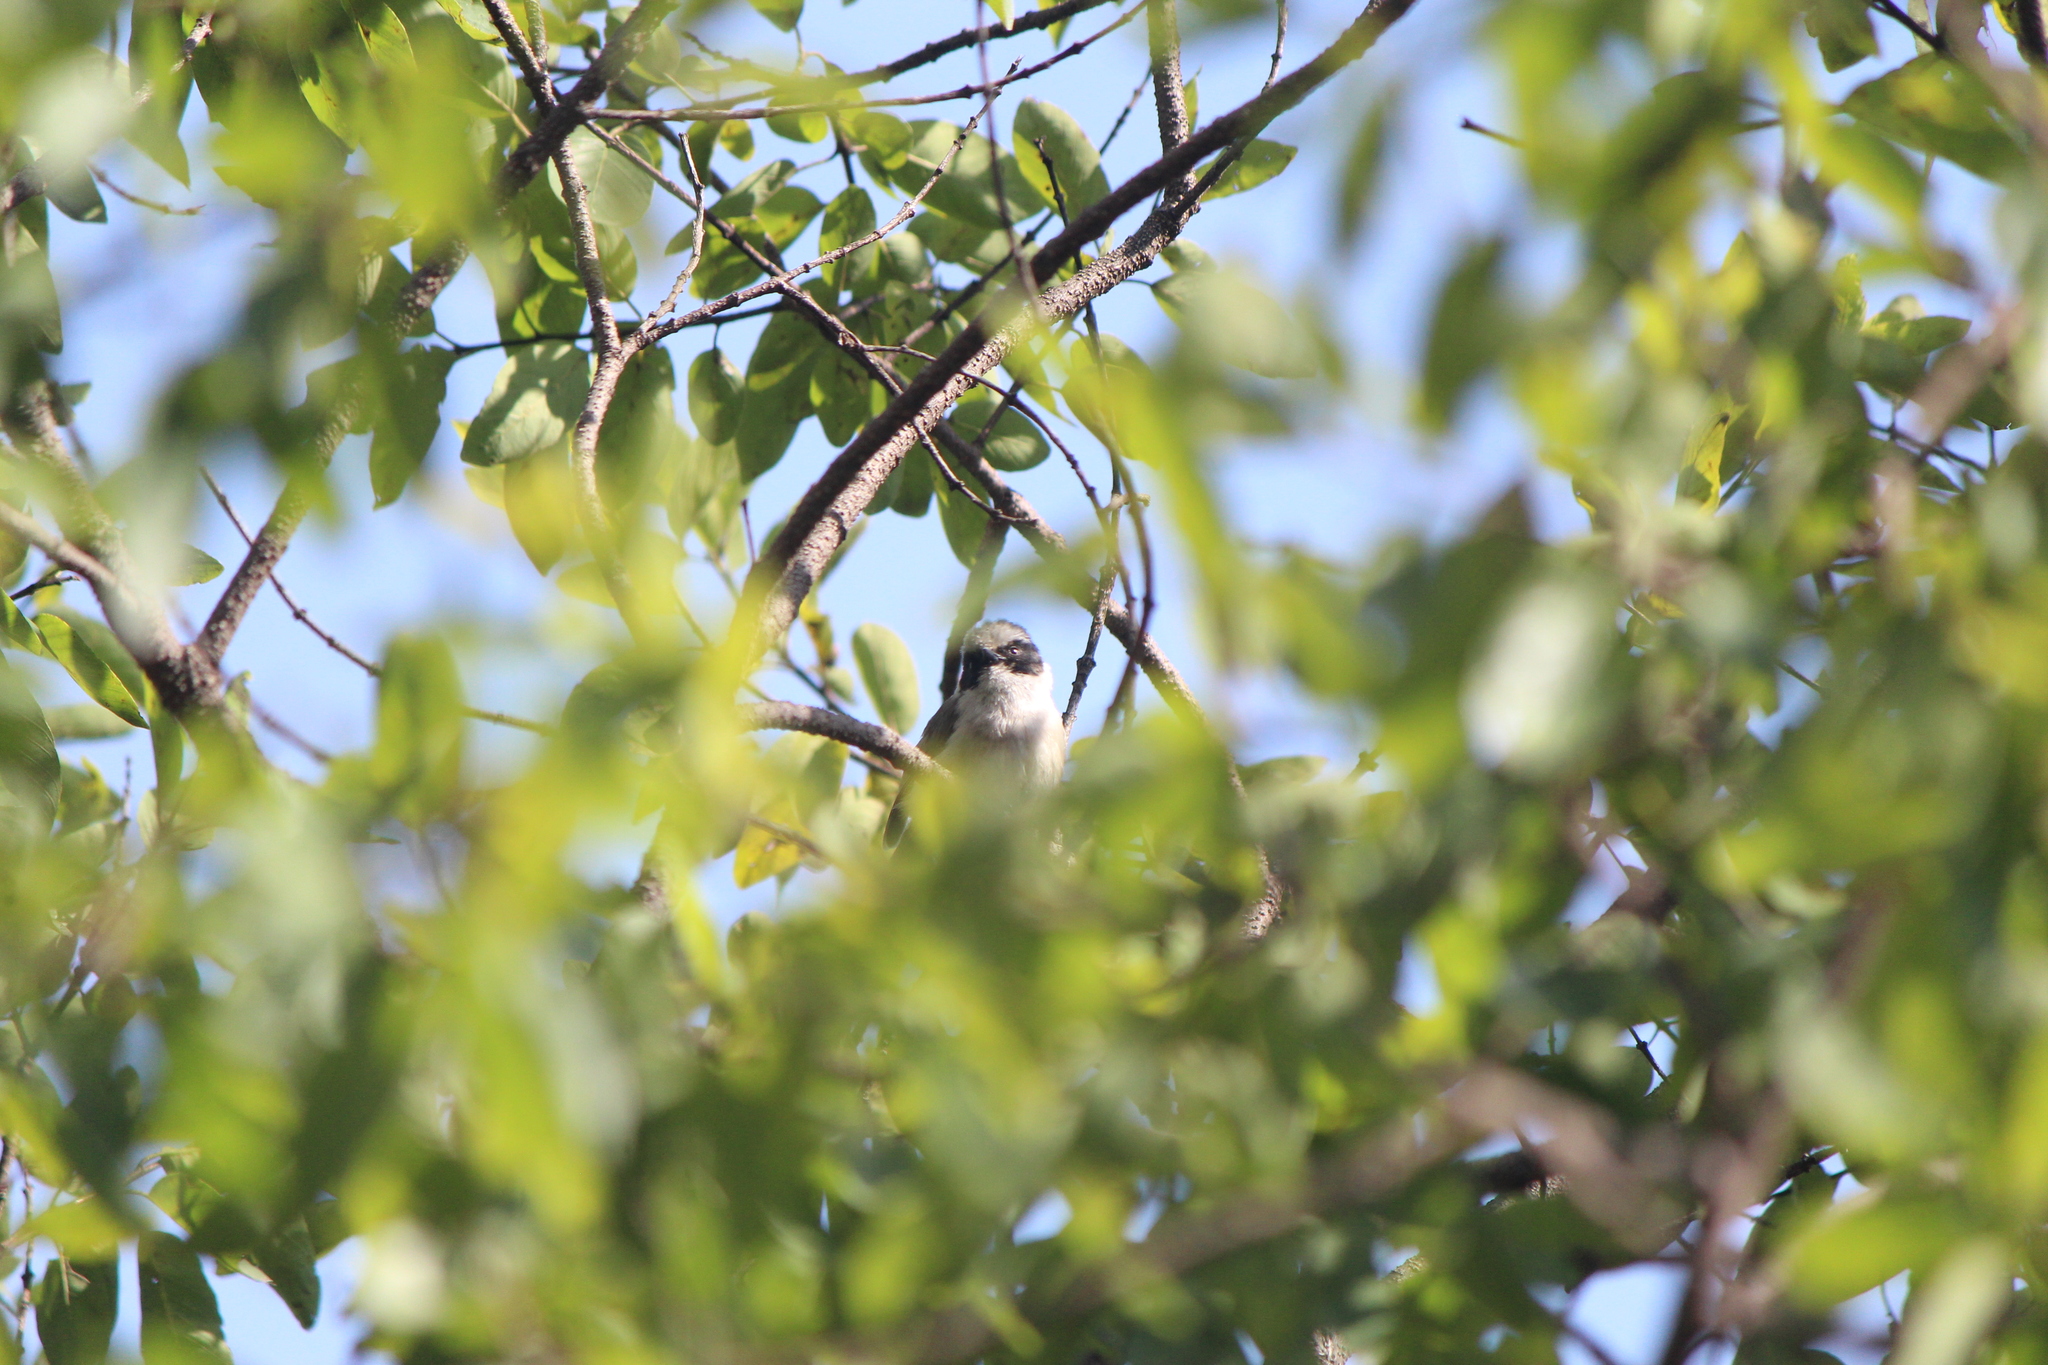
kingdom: Animalia
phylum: Chordata
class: Aves
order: Passeriformes
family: Aegithalidae
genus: Psaltriparus
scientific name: Psaltriparus minimus
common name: American bushtit
